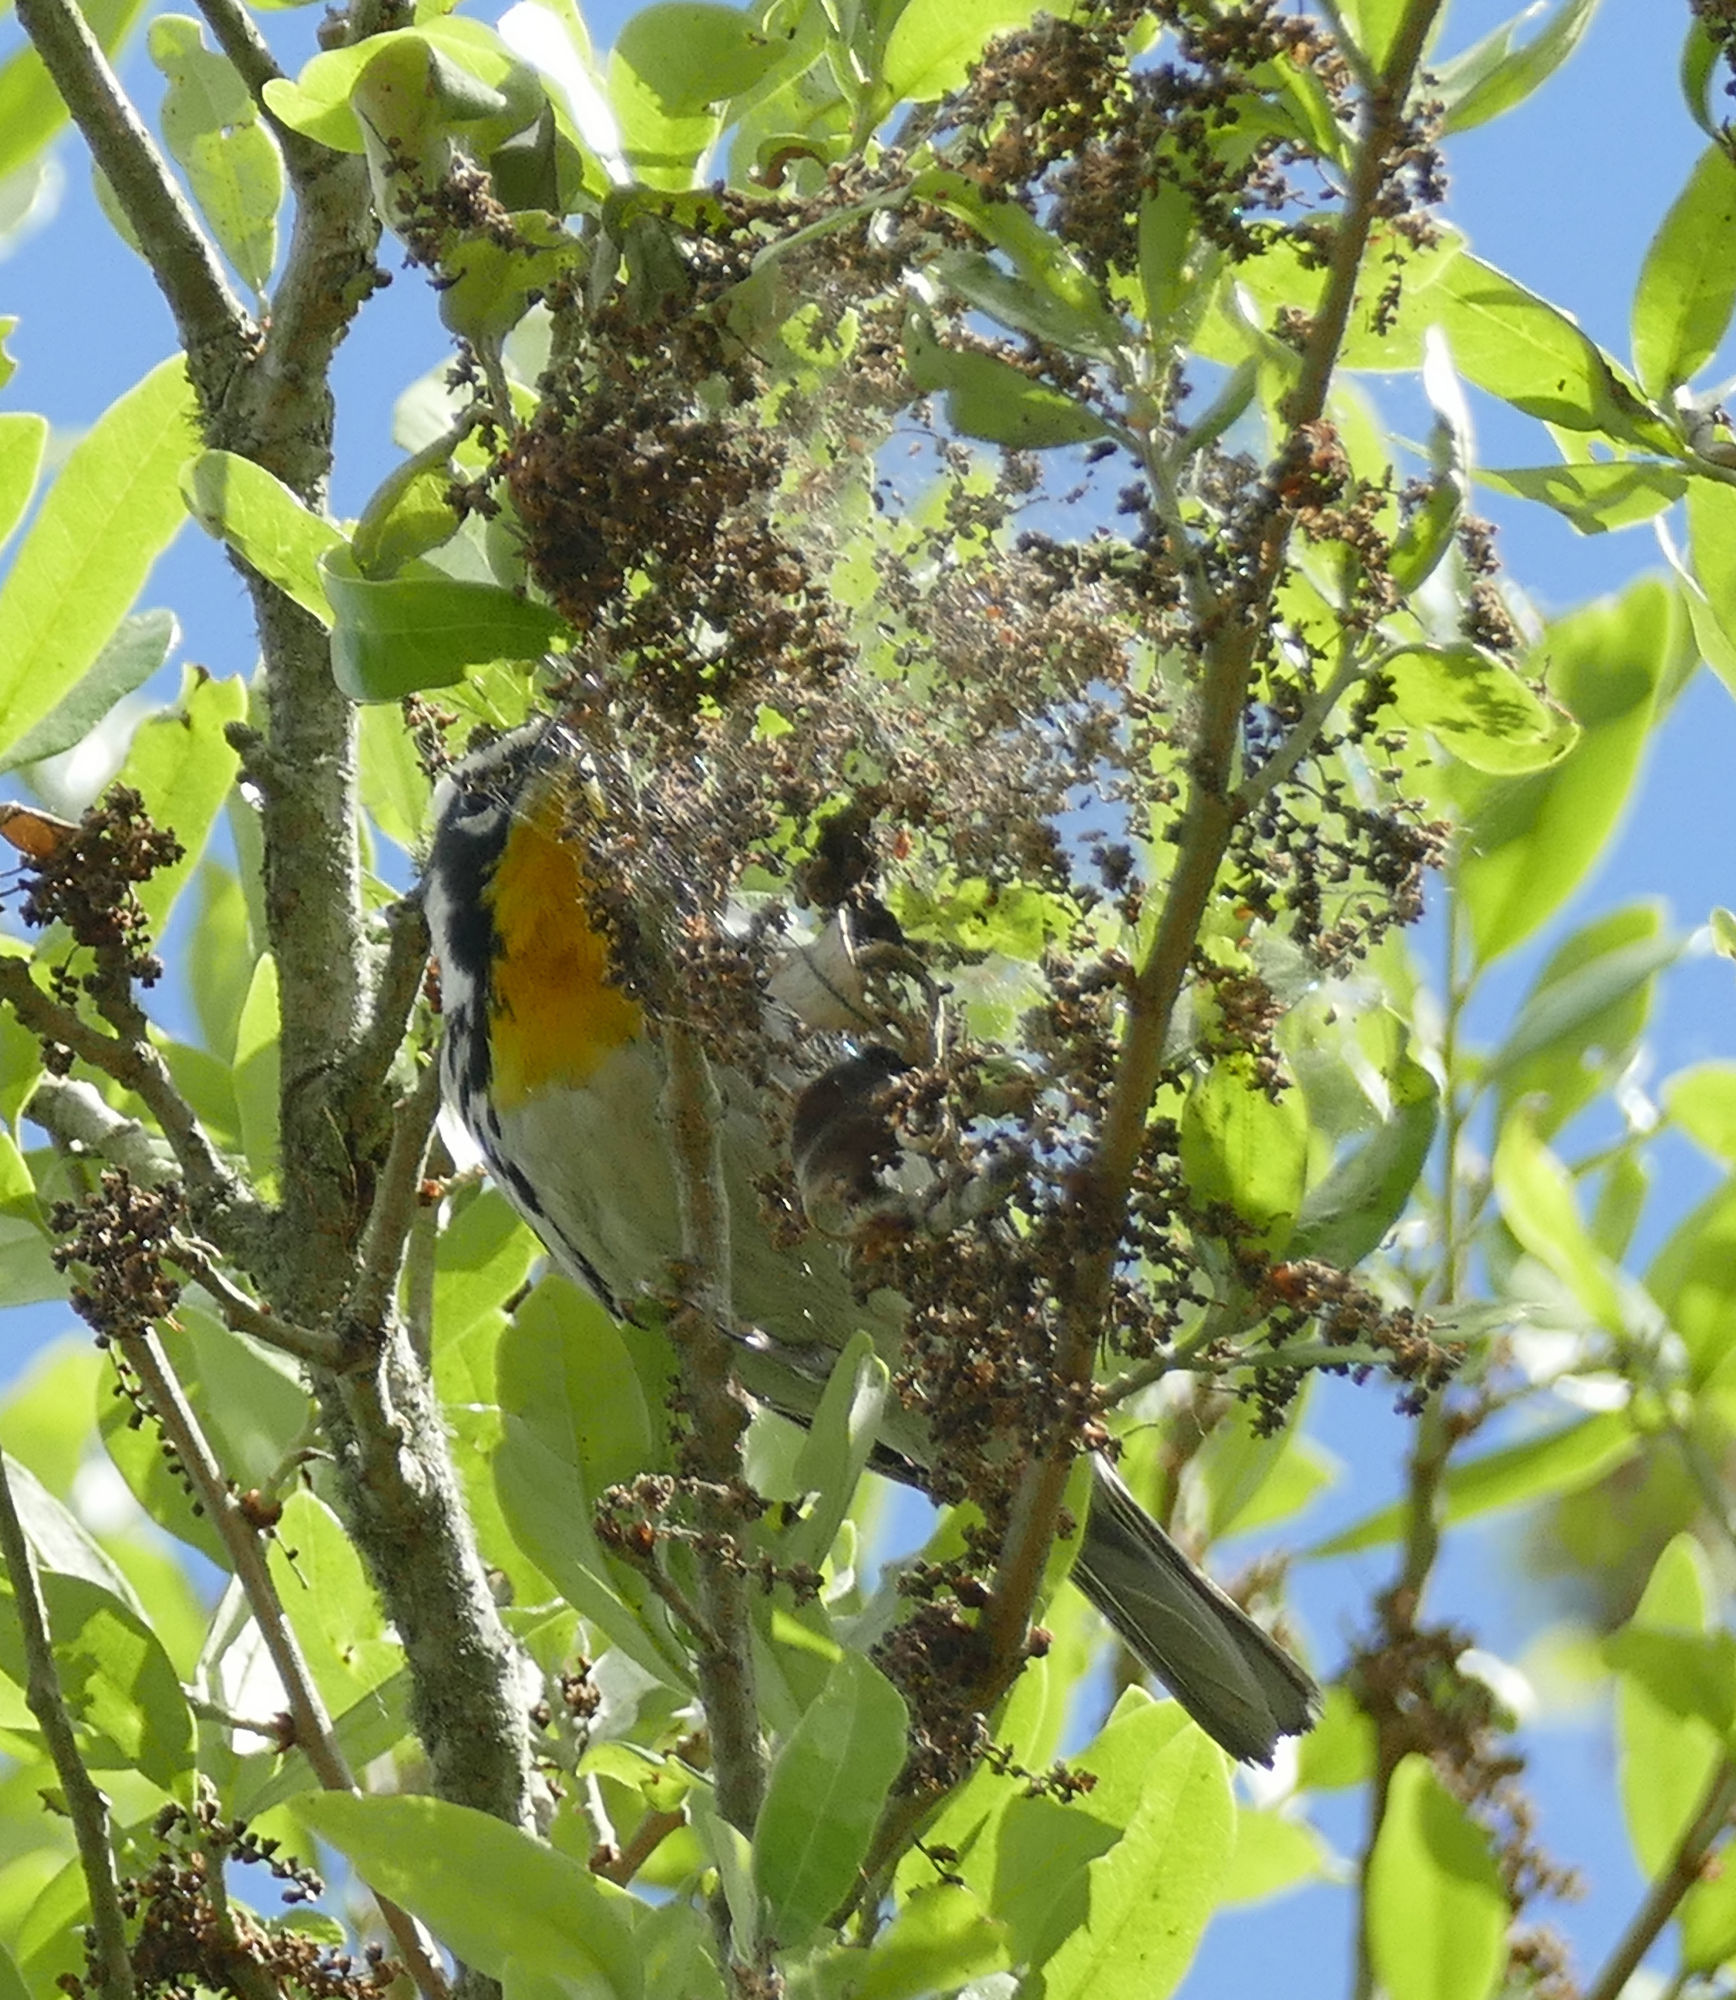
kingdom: Animalia
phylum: Chordata
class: Aves
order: Passeriformes
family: Parulidae
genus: Setophaga
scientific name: Setophaga dominica
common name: Yellow-throated warbler
